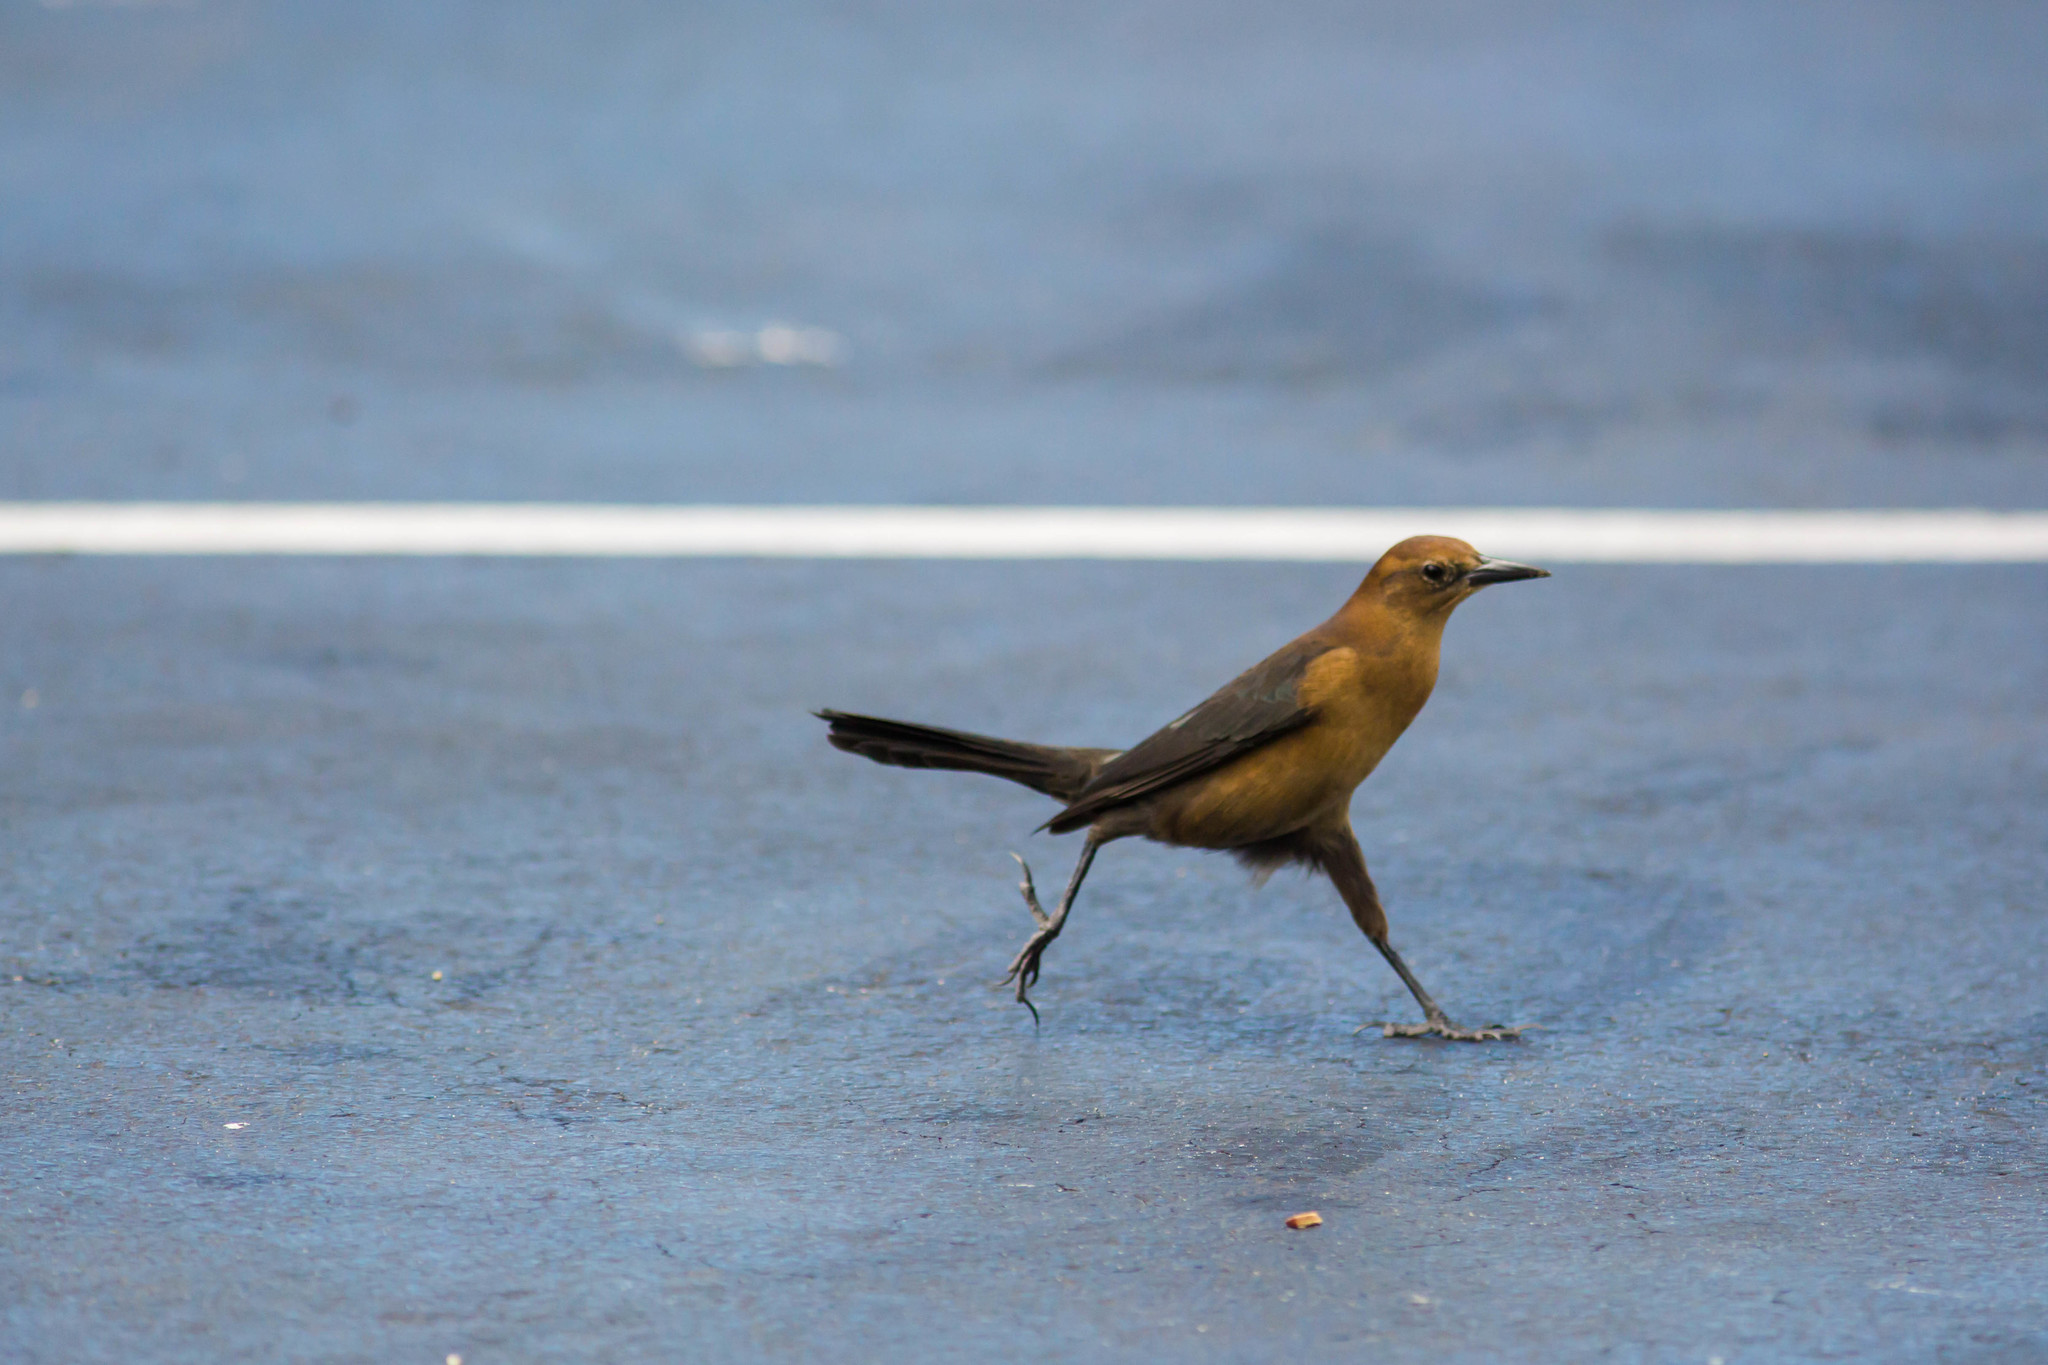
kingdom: Animalia
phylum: Chordata
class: Aves
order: Passeriformes
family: Icteridae
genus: Quiscalus
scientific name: Quiscalus major
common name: Boat-tailed grackle
